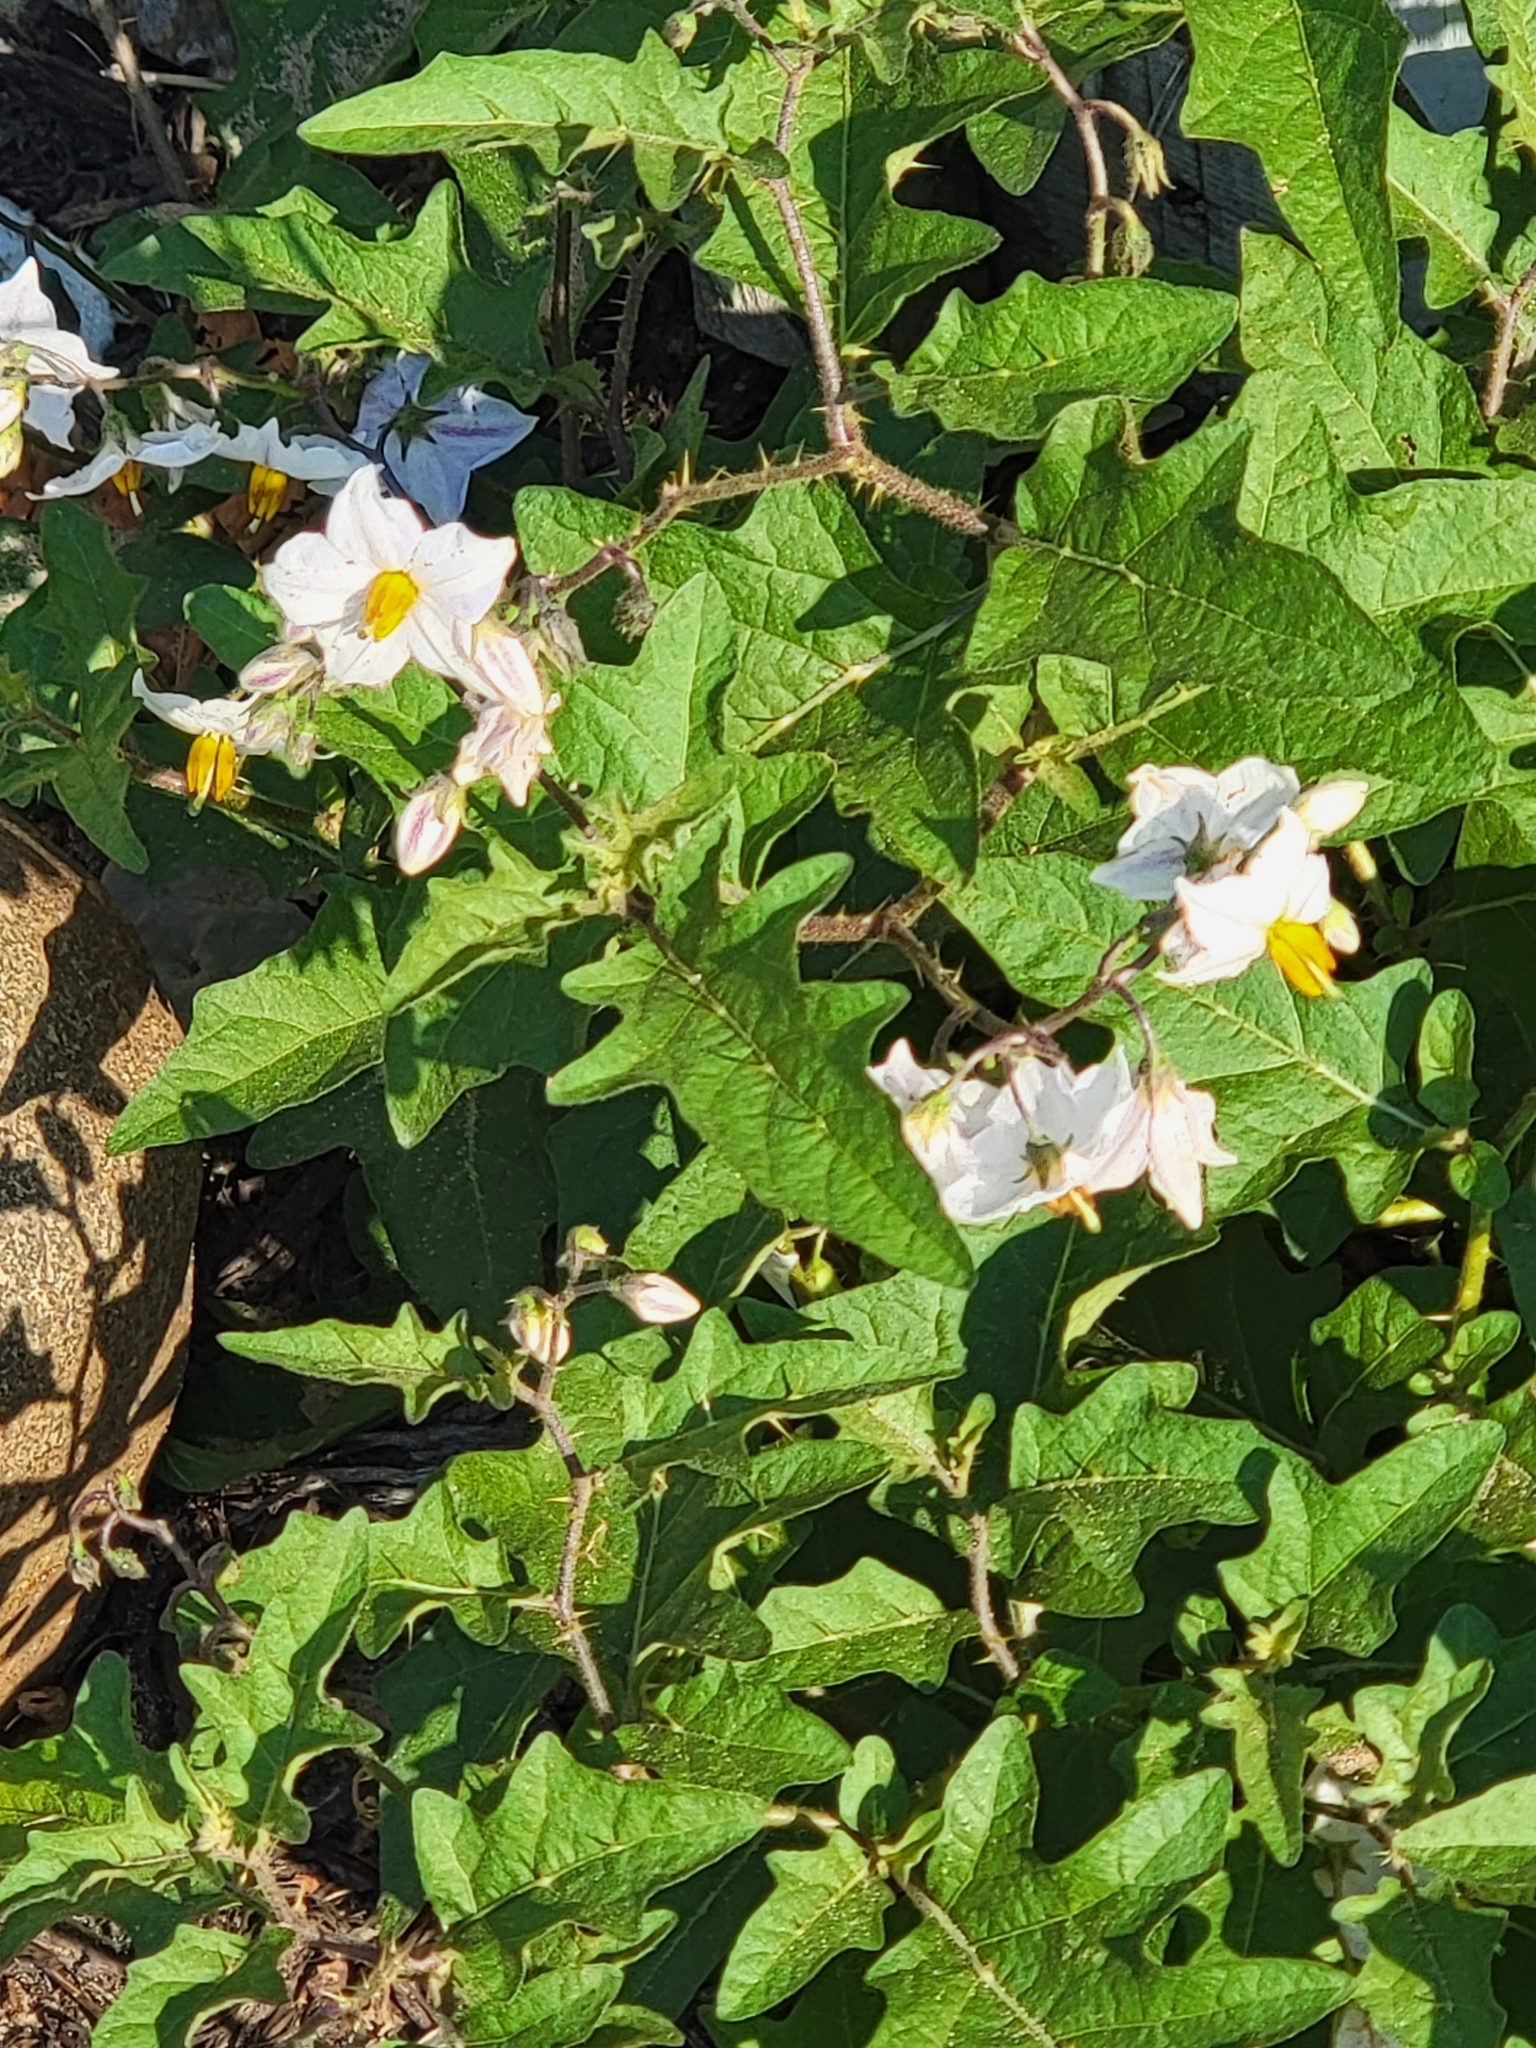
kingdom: Plantae
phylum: Tracheophyta
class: Magnoliopsida
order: Solanales
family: Solanaceae
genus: Solanum
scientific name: Solanum carolinense
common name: Horse-nettle
